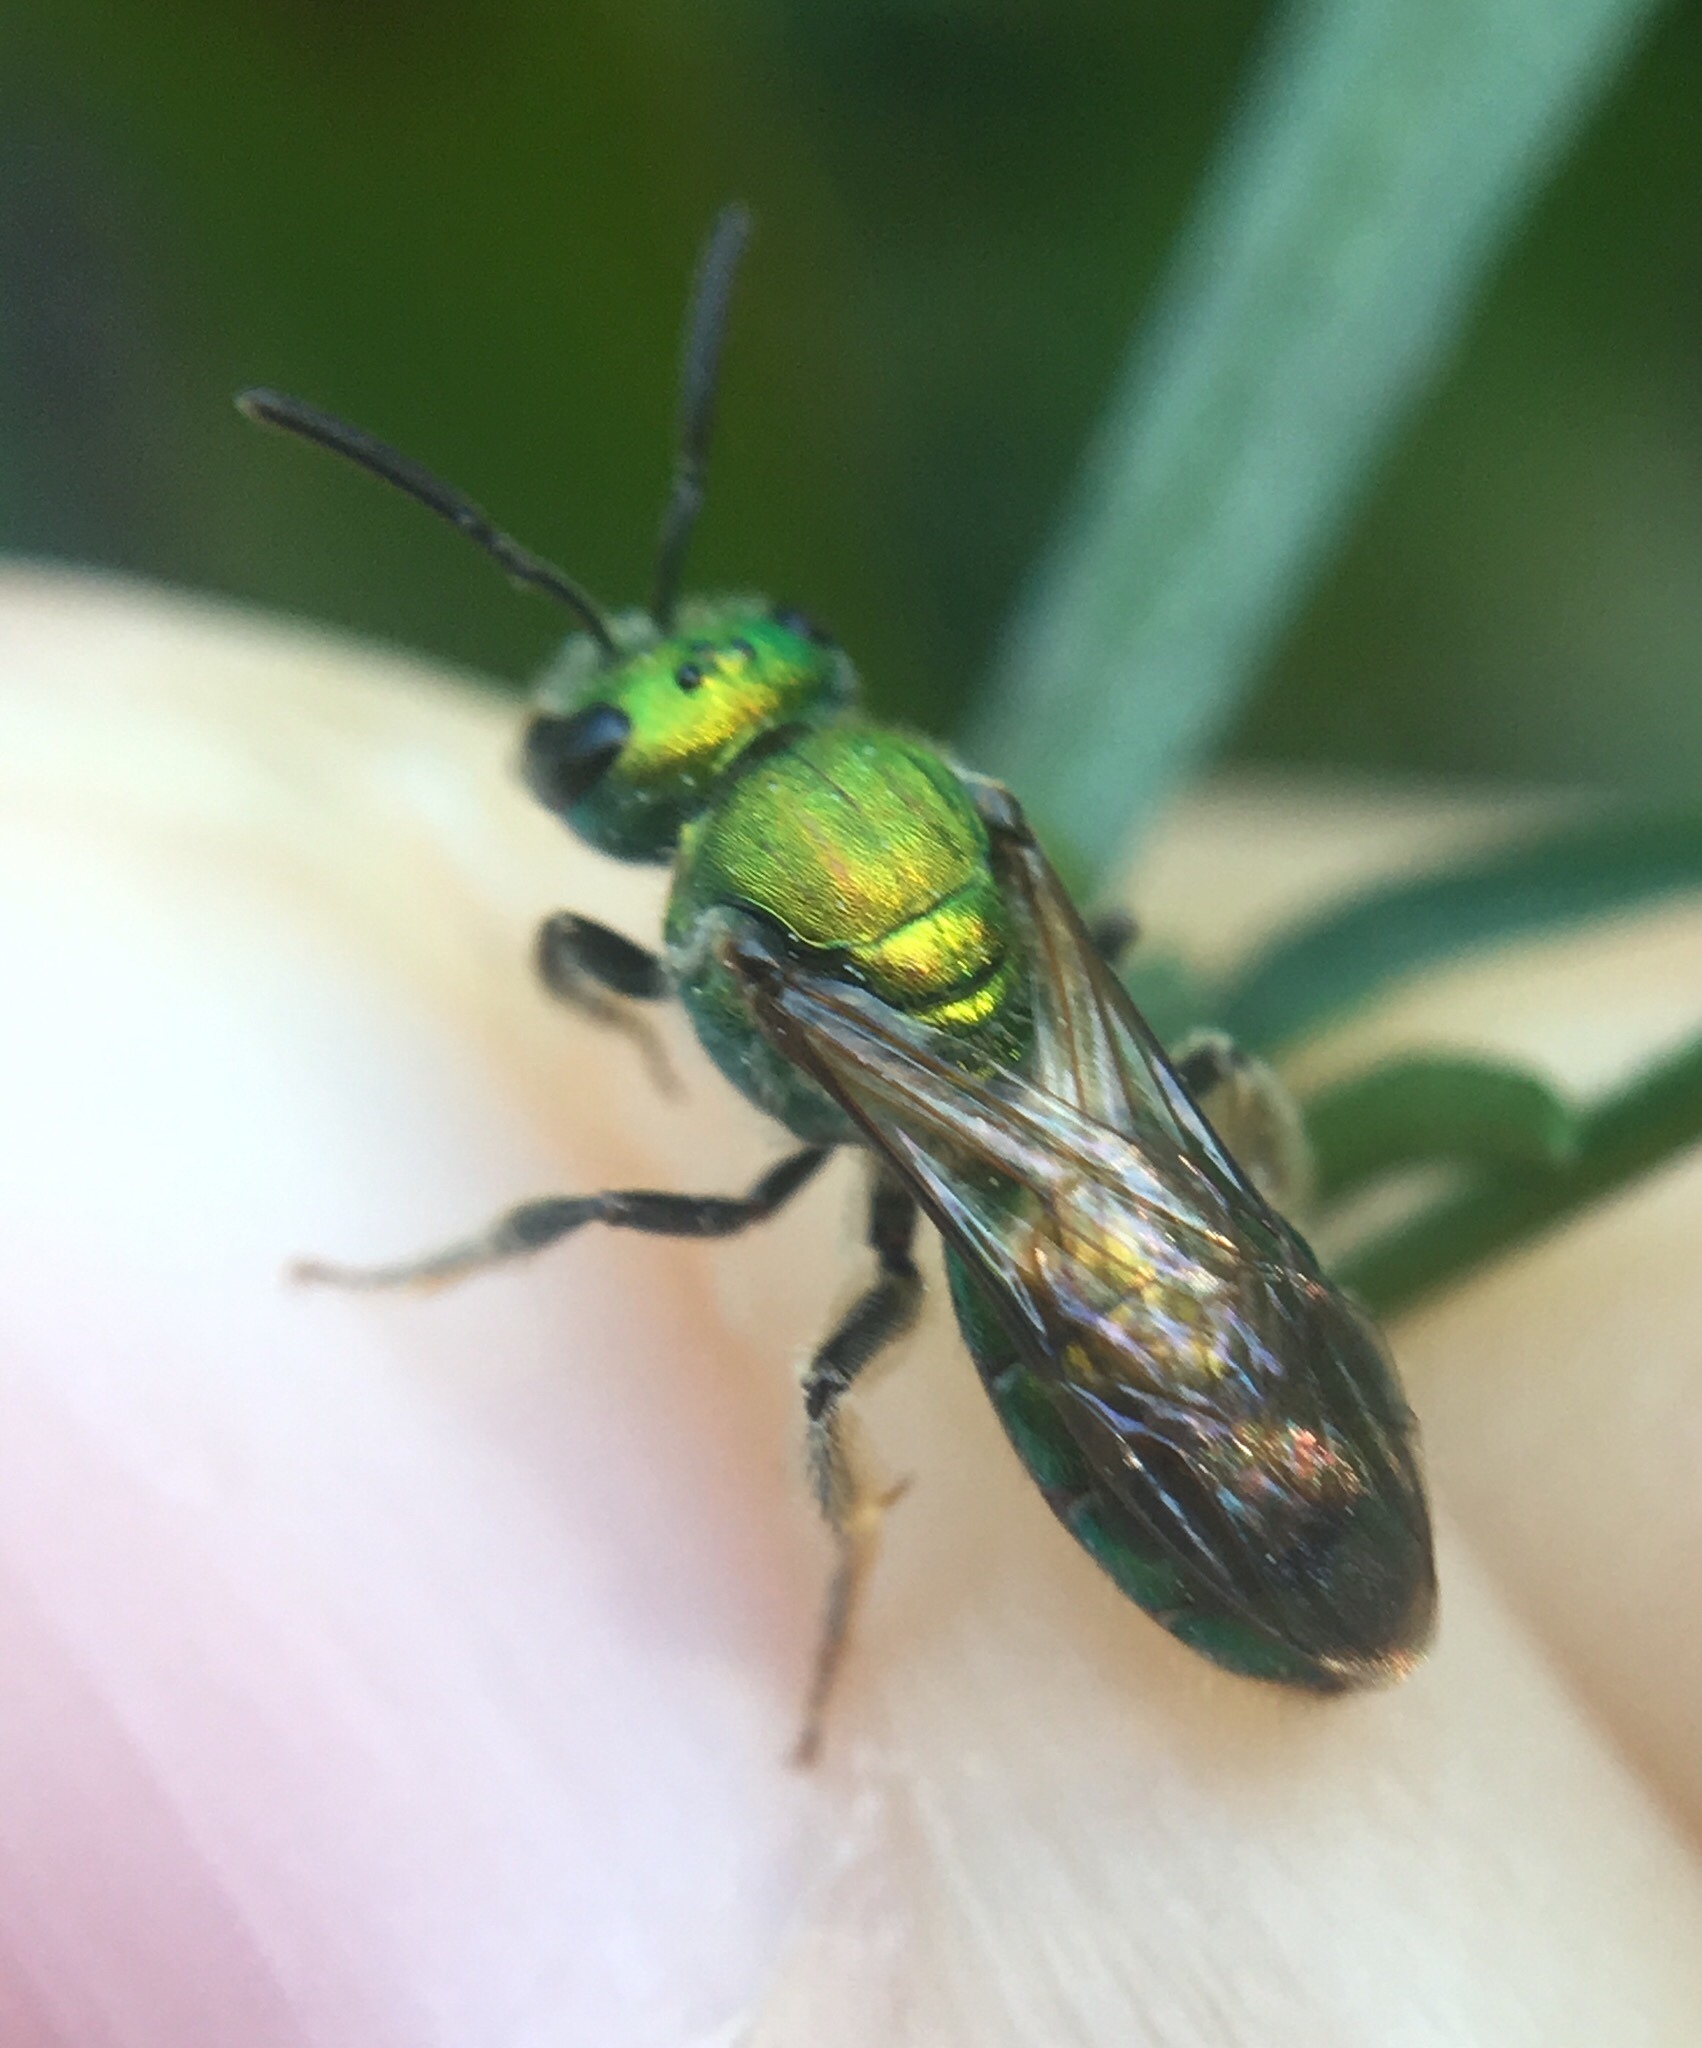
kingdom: Animalia
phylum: Arthropoda
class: Insecta
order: Hymenoptera
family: Halictidae
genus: Augochlora
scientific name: Augochlora pura
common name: Pure green sweat bee
